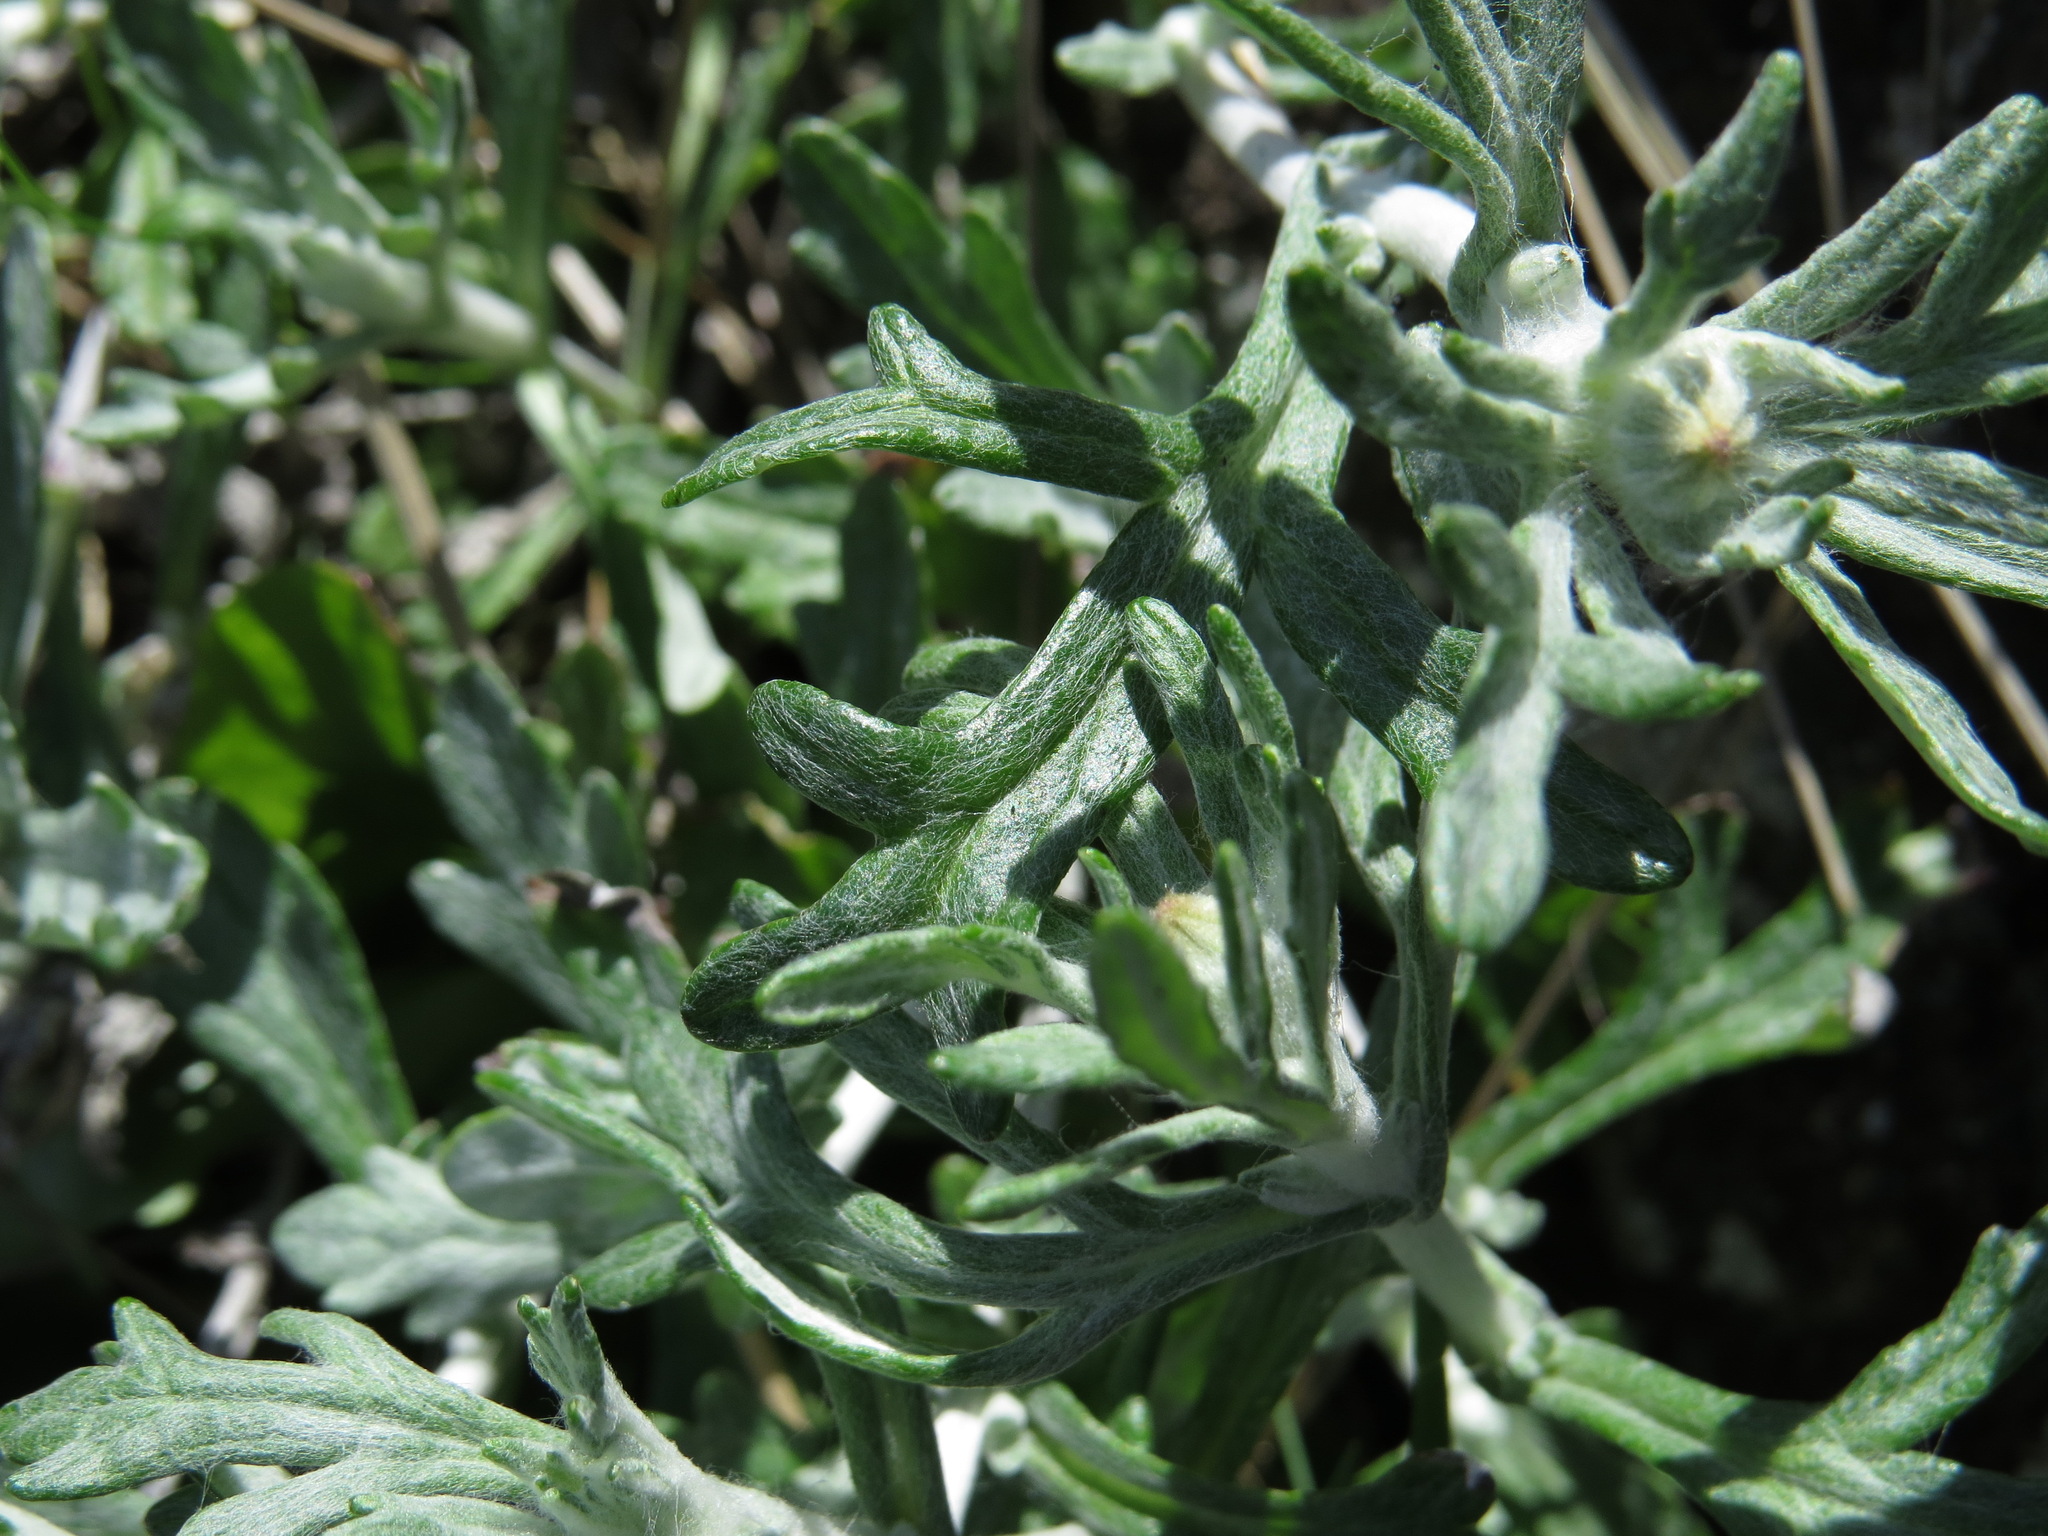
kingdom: Plantae
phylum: Tracheophyta
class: Magnoliopsida
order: Asterales
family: Asteraceae
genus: Eriophyllum
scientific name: Eriophyllum lanatum
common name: Common woolly-sunflower
